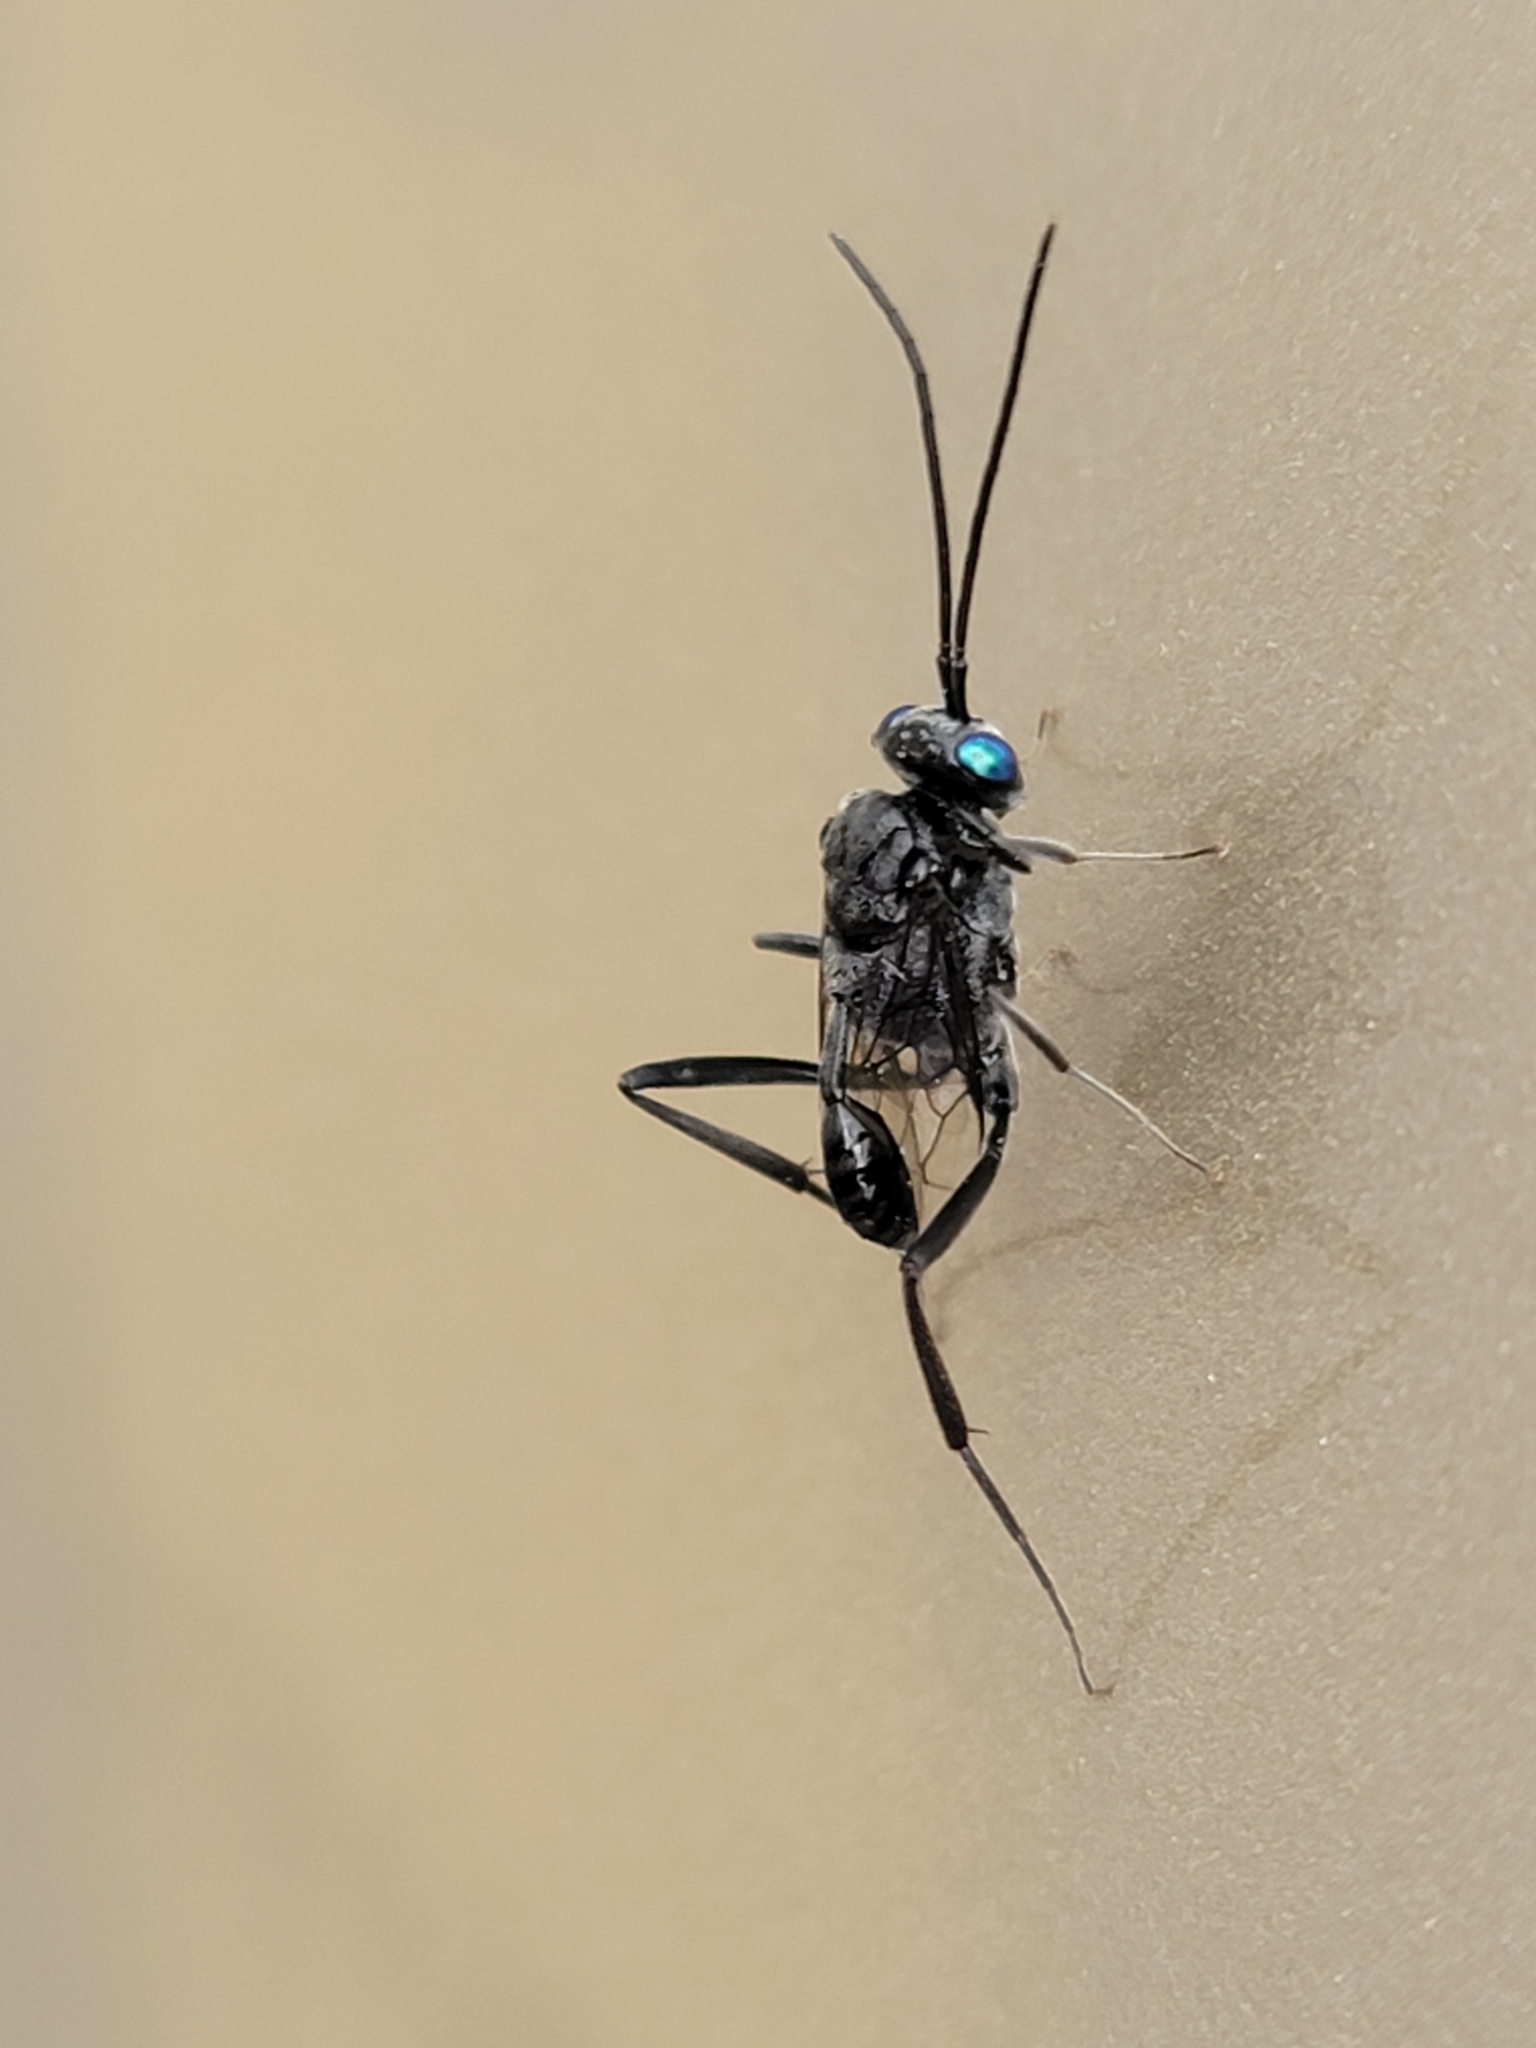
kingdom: Animalia
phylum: Arthropoda
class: Insecta
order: Hymenoptera
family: Evaniidae
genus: Evania
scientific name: Evania appendigaster
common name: Ensign wasp
